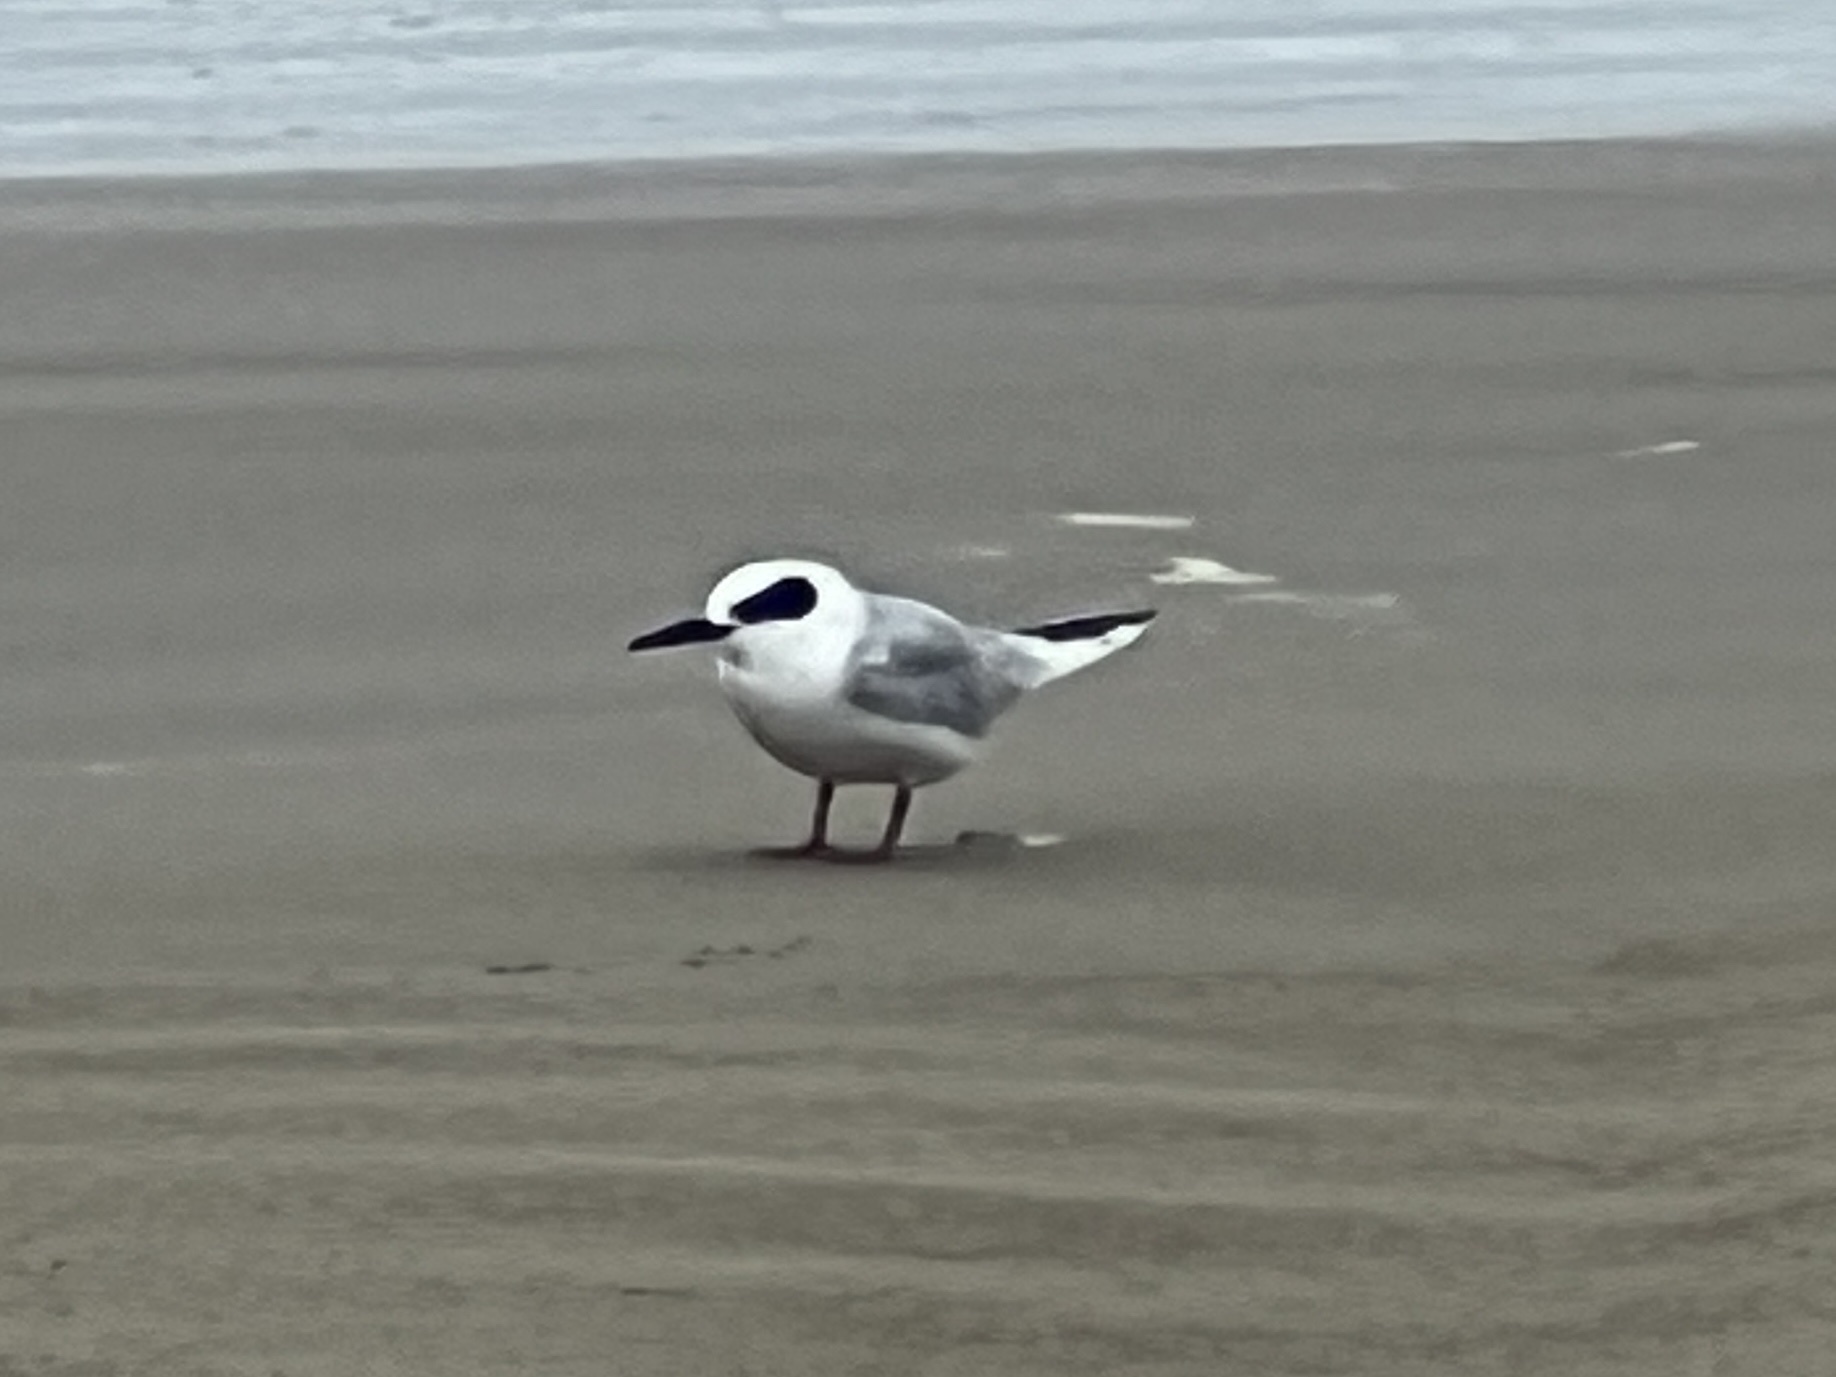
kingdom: Animalia
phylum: Chordata
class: Aves
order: Charadriiformes
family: Laridae
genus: Sterna
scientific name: Sterna forsteri
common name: Forster's tern
